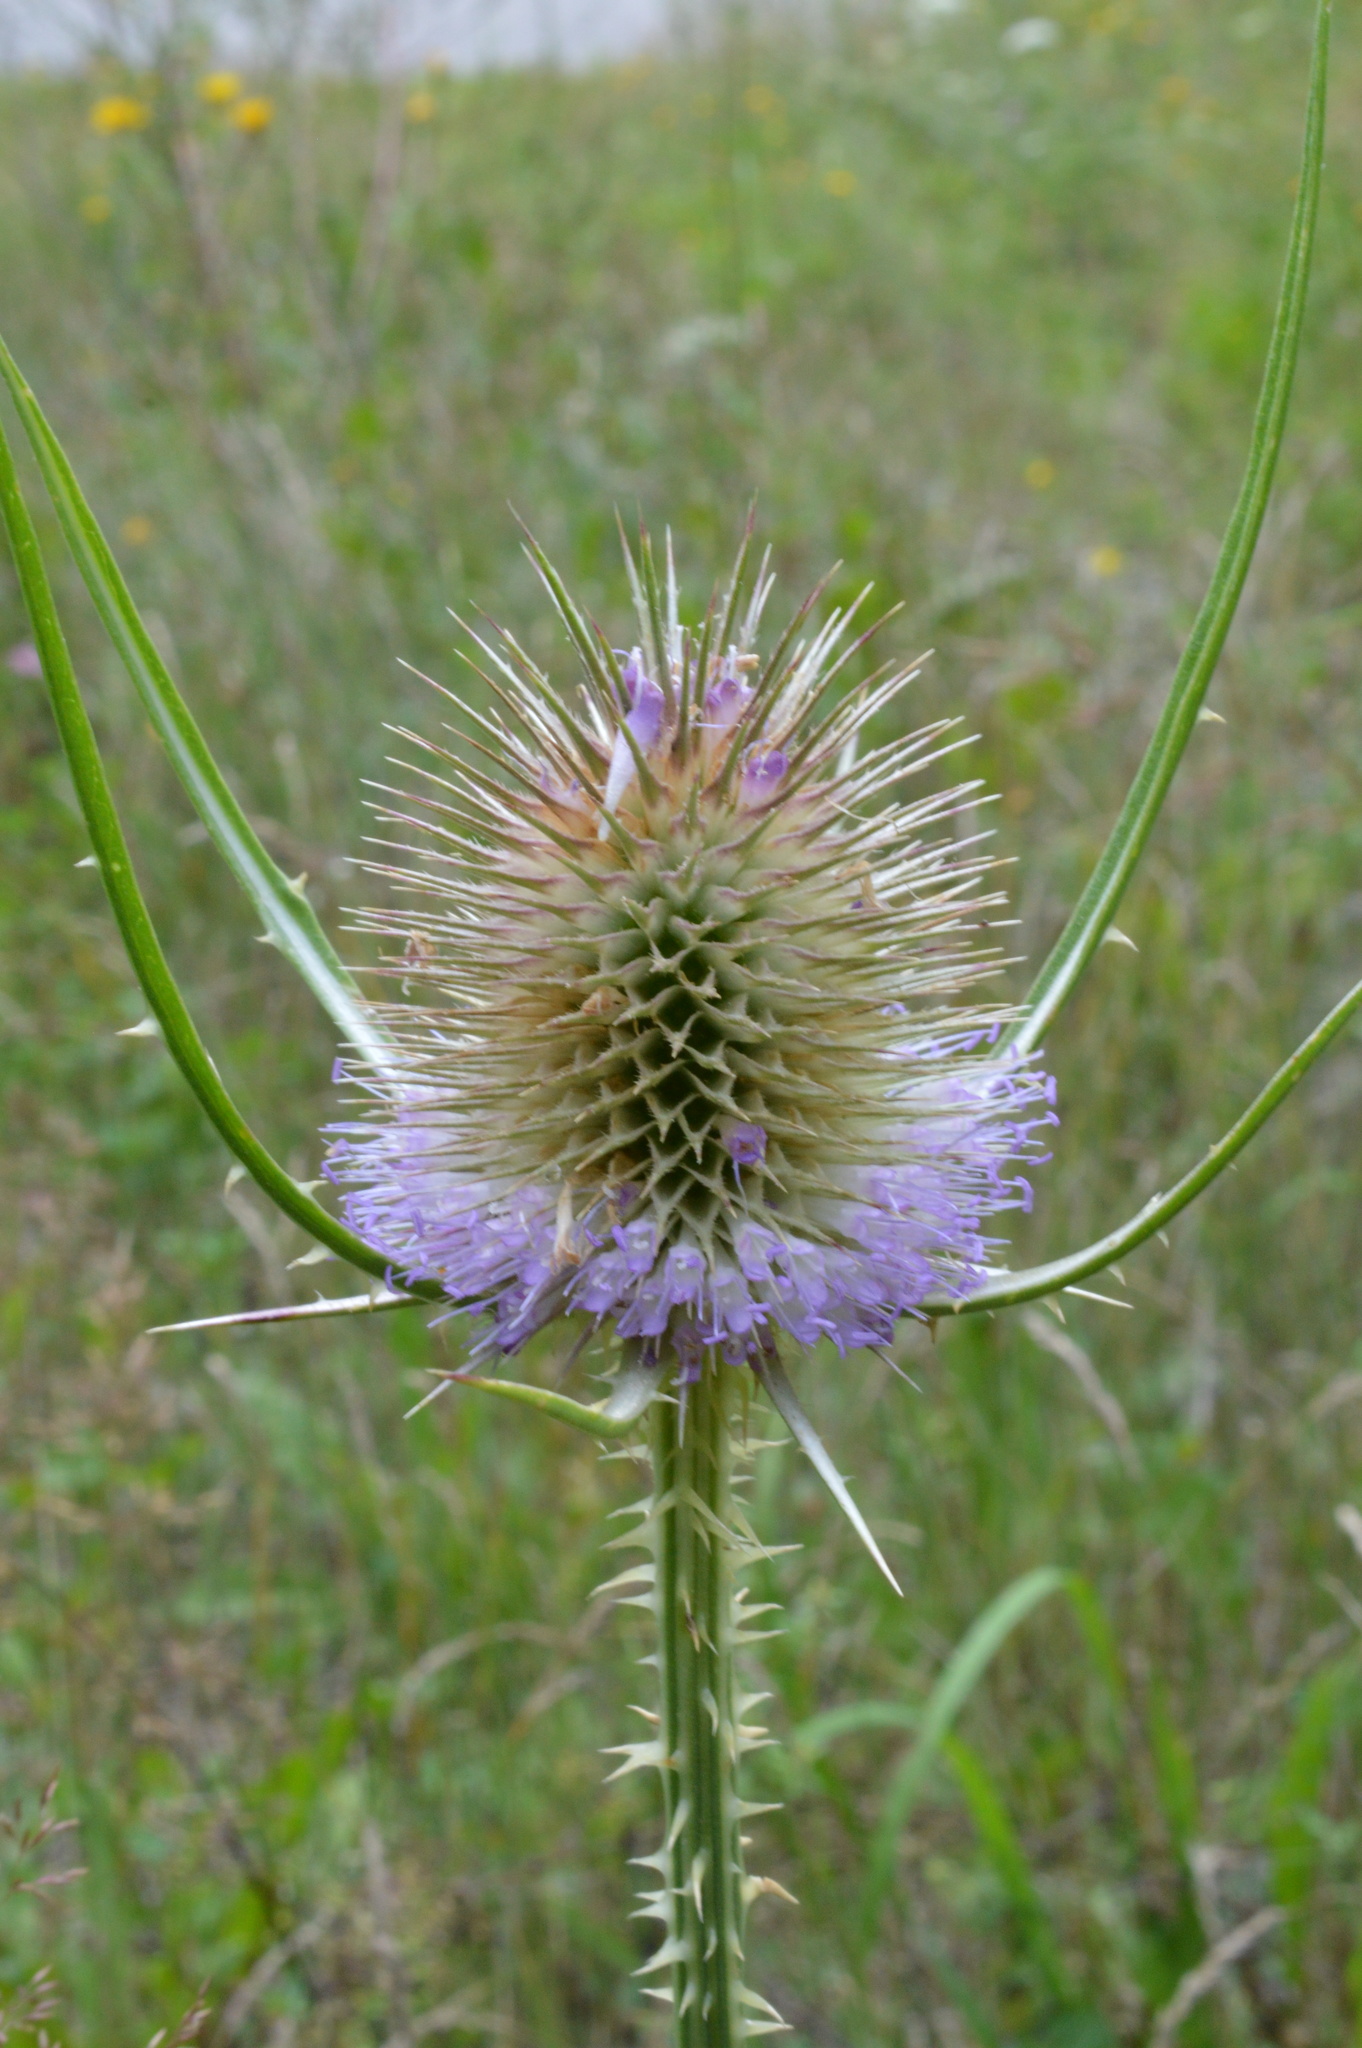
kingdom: Plantae
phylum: Tracheophyta
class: Magnoliopsida
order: Dipsacales
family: Caprifoliaceae
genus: Dipsacus
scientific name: Dipsacus fullonum
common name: Teasel
